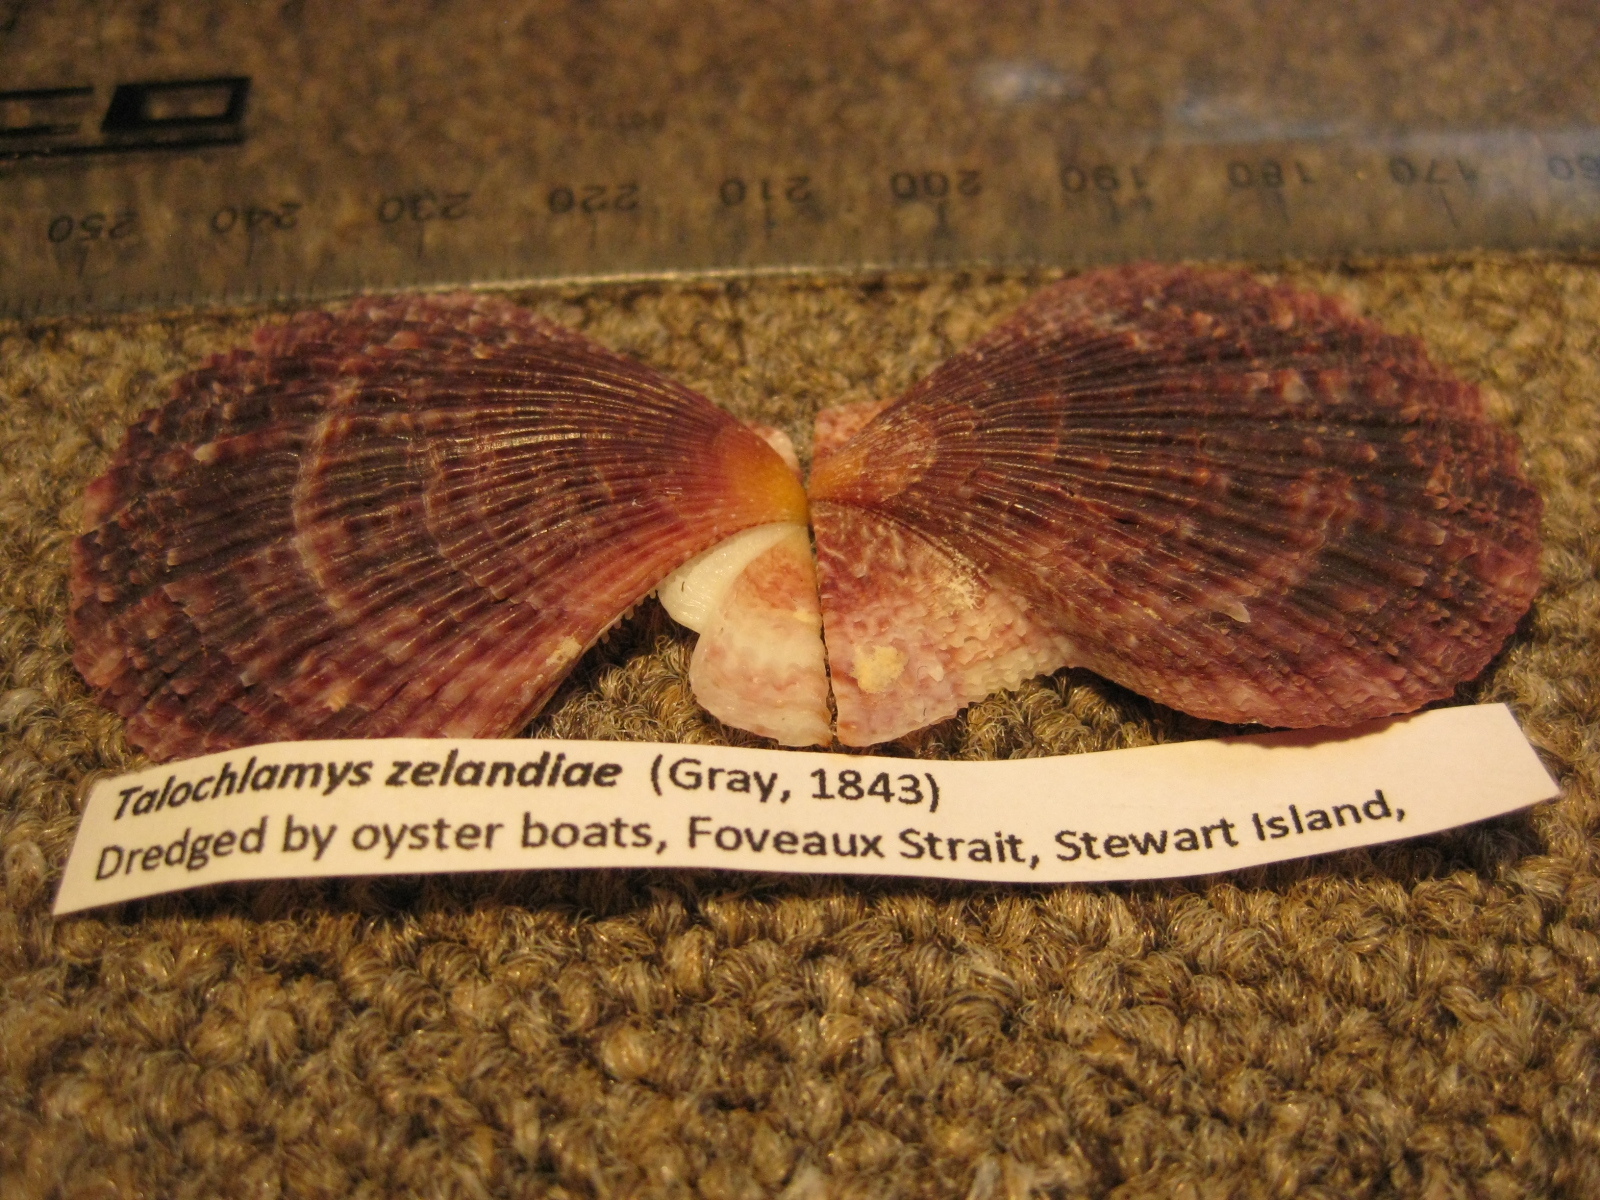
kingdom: Animalia
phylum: Mollusca
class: Bivalvia
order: Pectinida
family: Pectinidae
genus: Talochlamys
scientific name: Talochlamys zelandiae
